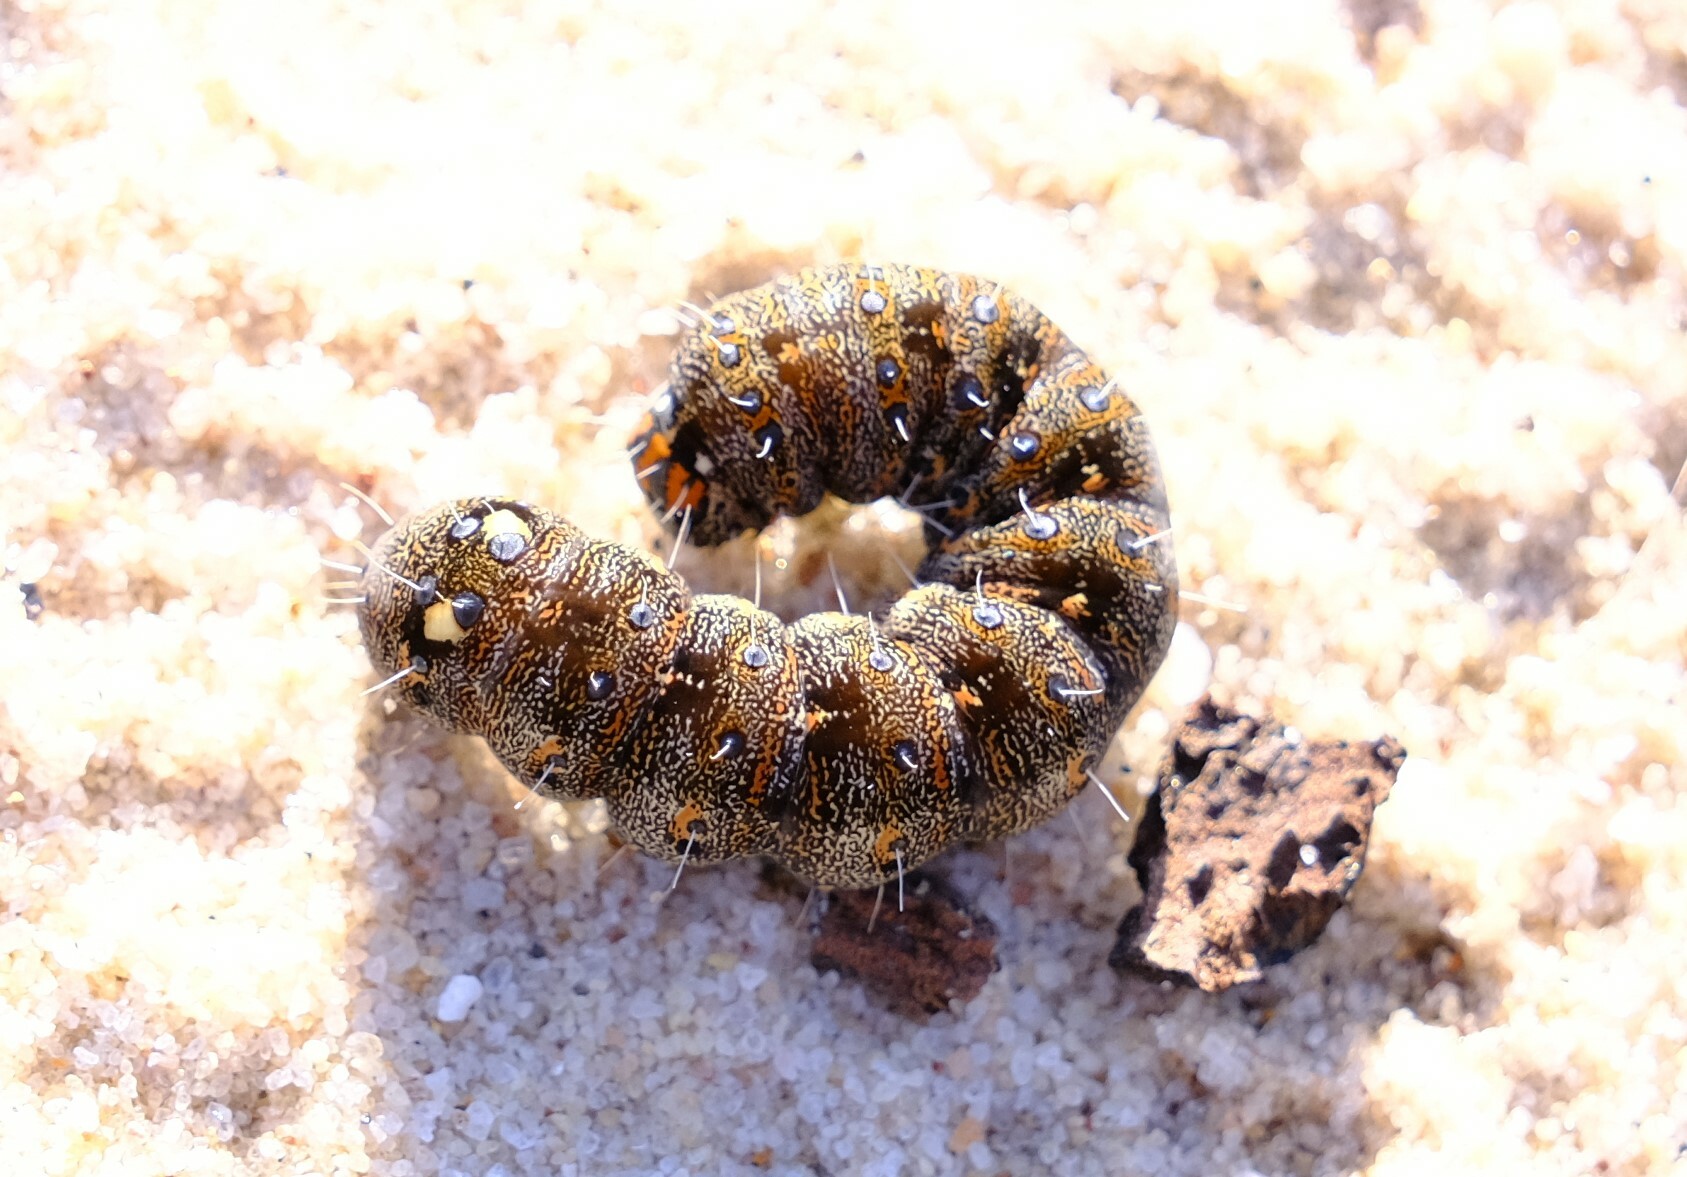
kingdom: Animalia
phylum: Arthropoda
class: Insecta
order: Lepidoptera
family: Noctuidae
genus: Apina
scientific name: Apina callisto
